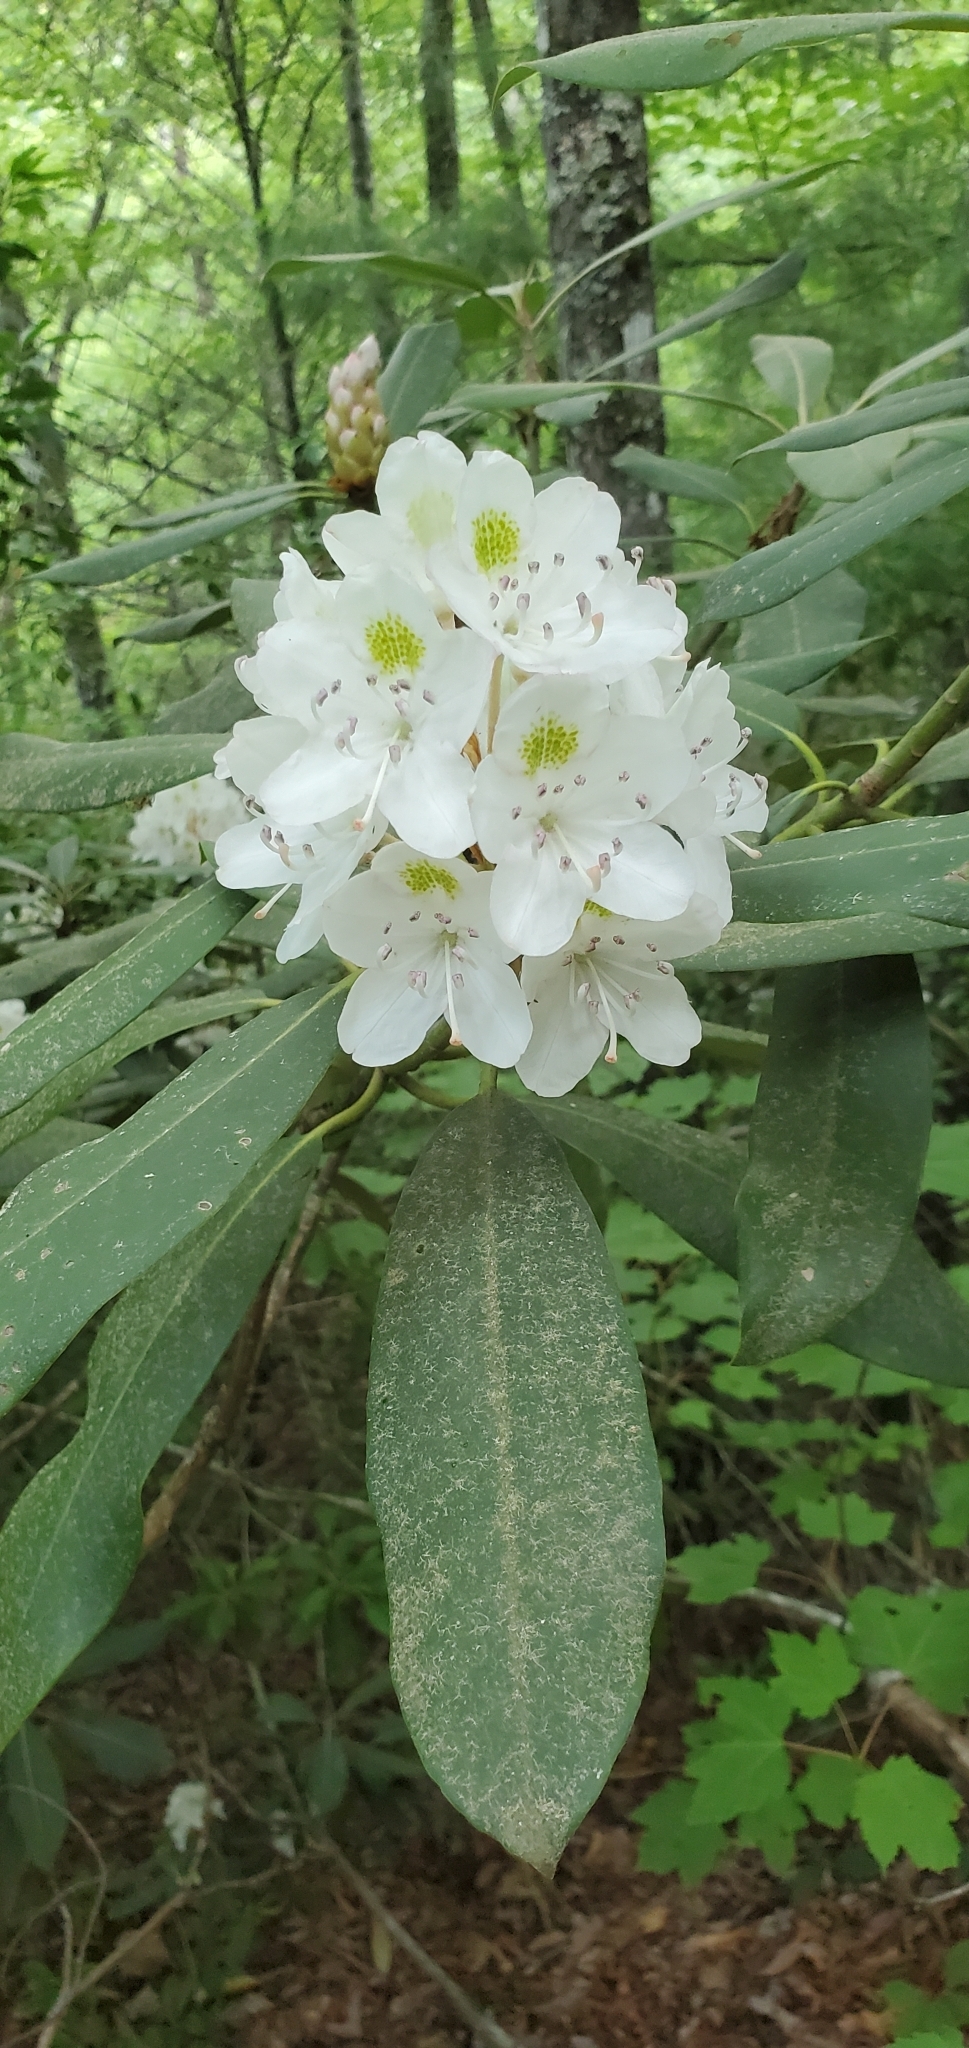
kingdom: Plantae
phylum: Tracheophyta
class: Magnoliopsida
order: Ericales
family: Ericaceae
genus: Rhododendron
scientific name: Rhododendron maximum
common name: Great rhododendron
